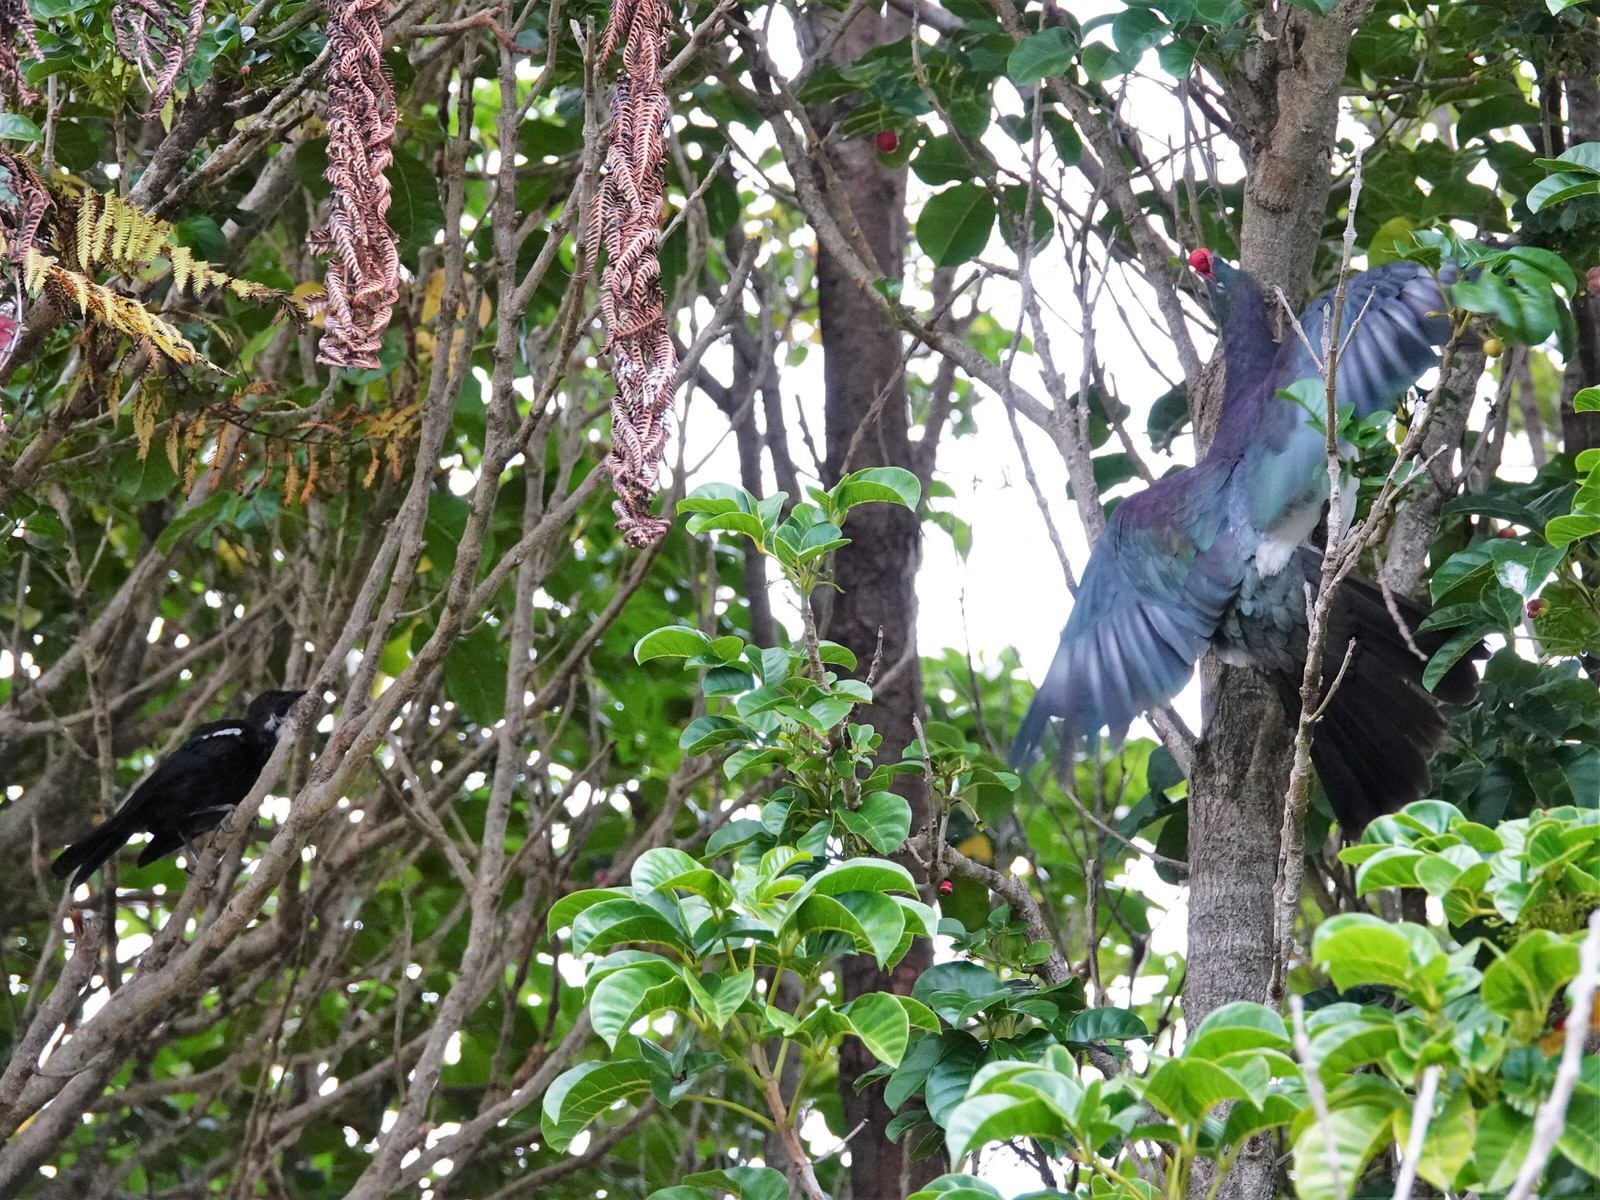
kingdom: Animalia
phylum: Chordata
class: Aves
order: Columbiformes
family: Columbidae
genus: Hemiphaga
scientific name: Hemiphaga novaeseelandiae
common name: New zealand pigeon
